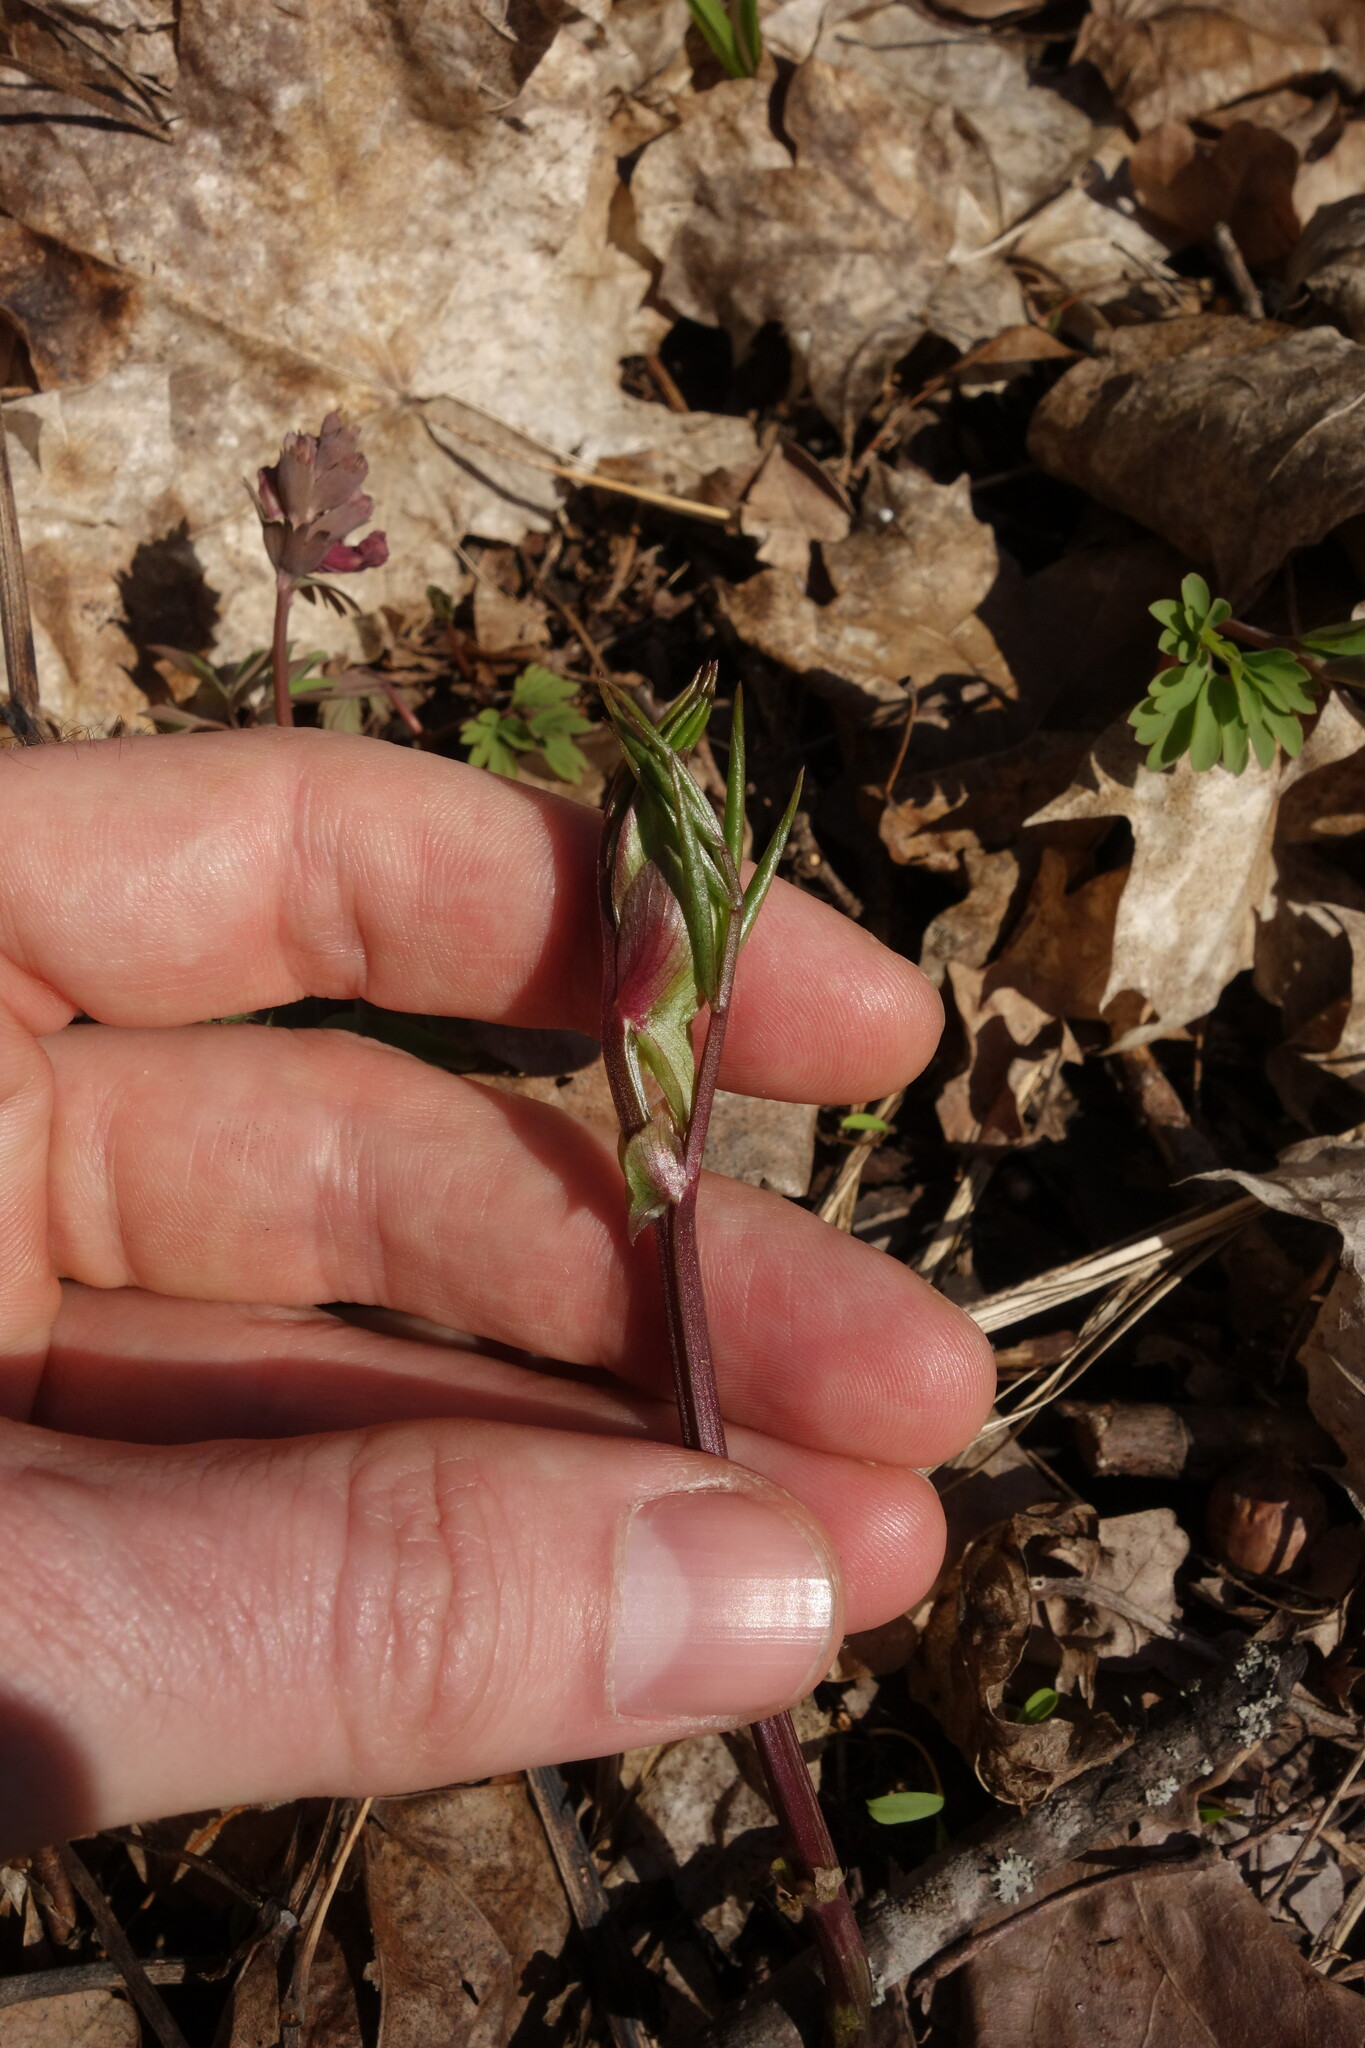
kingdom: Plantae
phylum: Tracheophyta
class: Magnoliopsida
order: Fabales
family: Fabaceae
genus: Lathyrus
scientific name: Lathyrus vernus
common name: Spring pea
